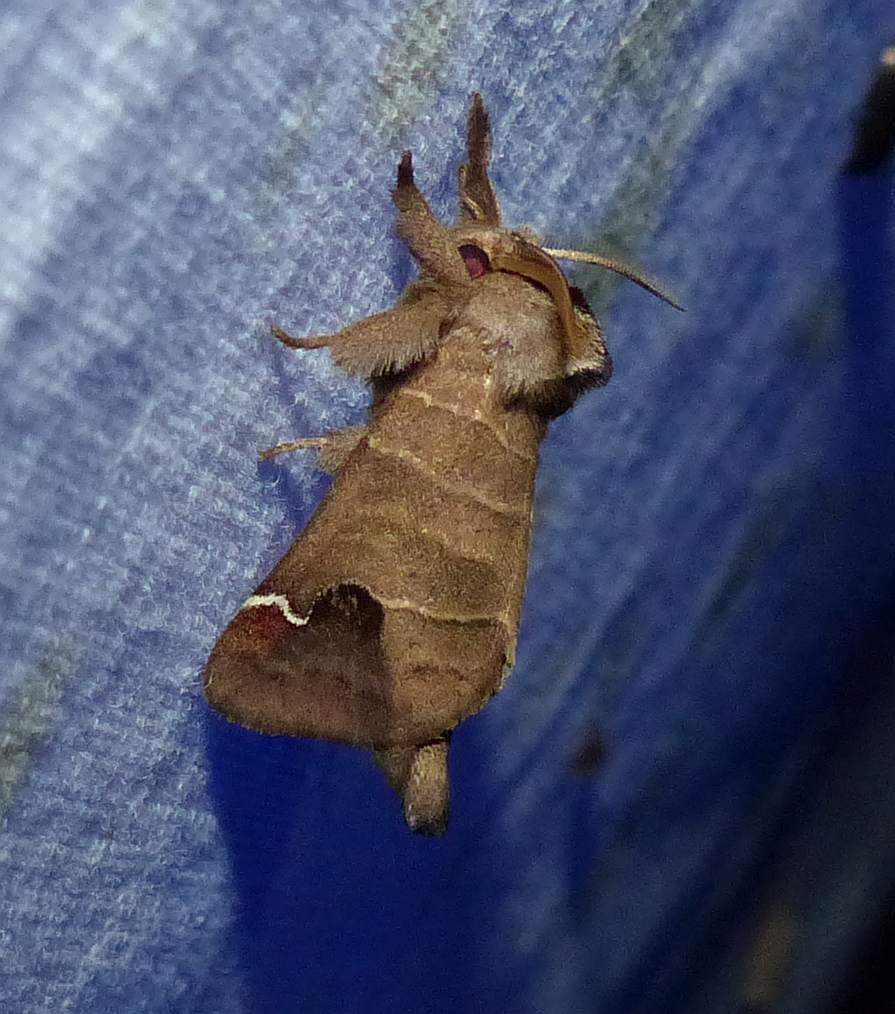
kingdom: Animalia
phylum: Arthropoda
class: Insecta
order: Lepidoptera
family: Notodontidae
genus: Clostera
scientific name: Clostera albosigma
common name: Sigmoid prominent
